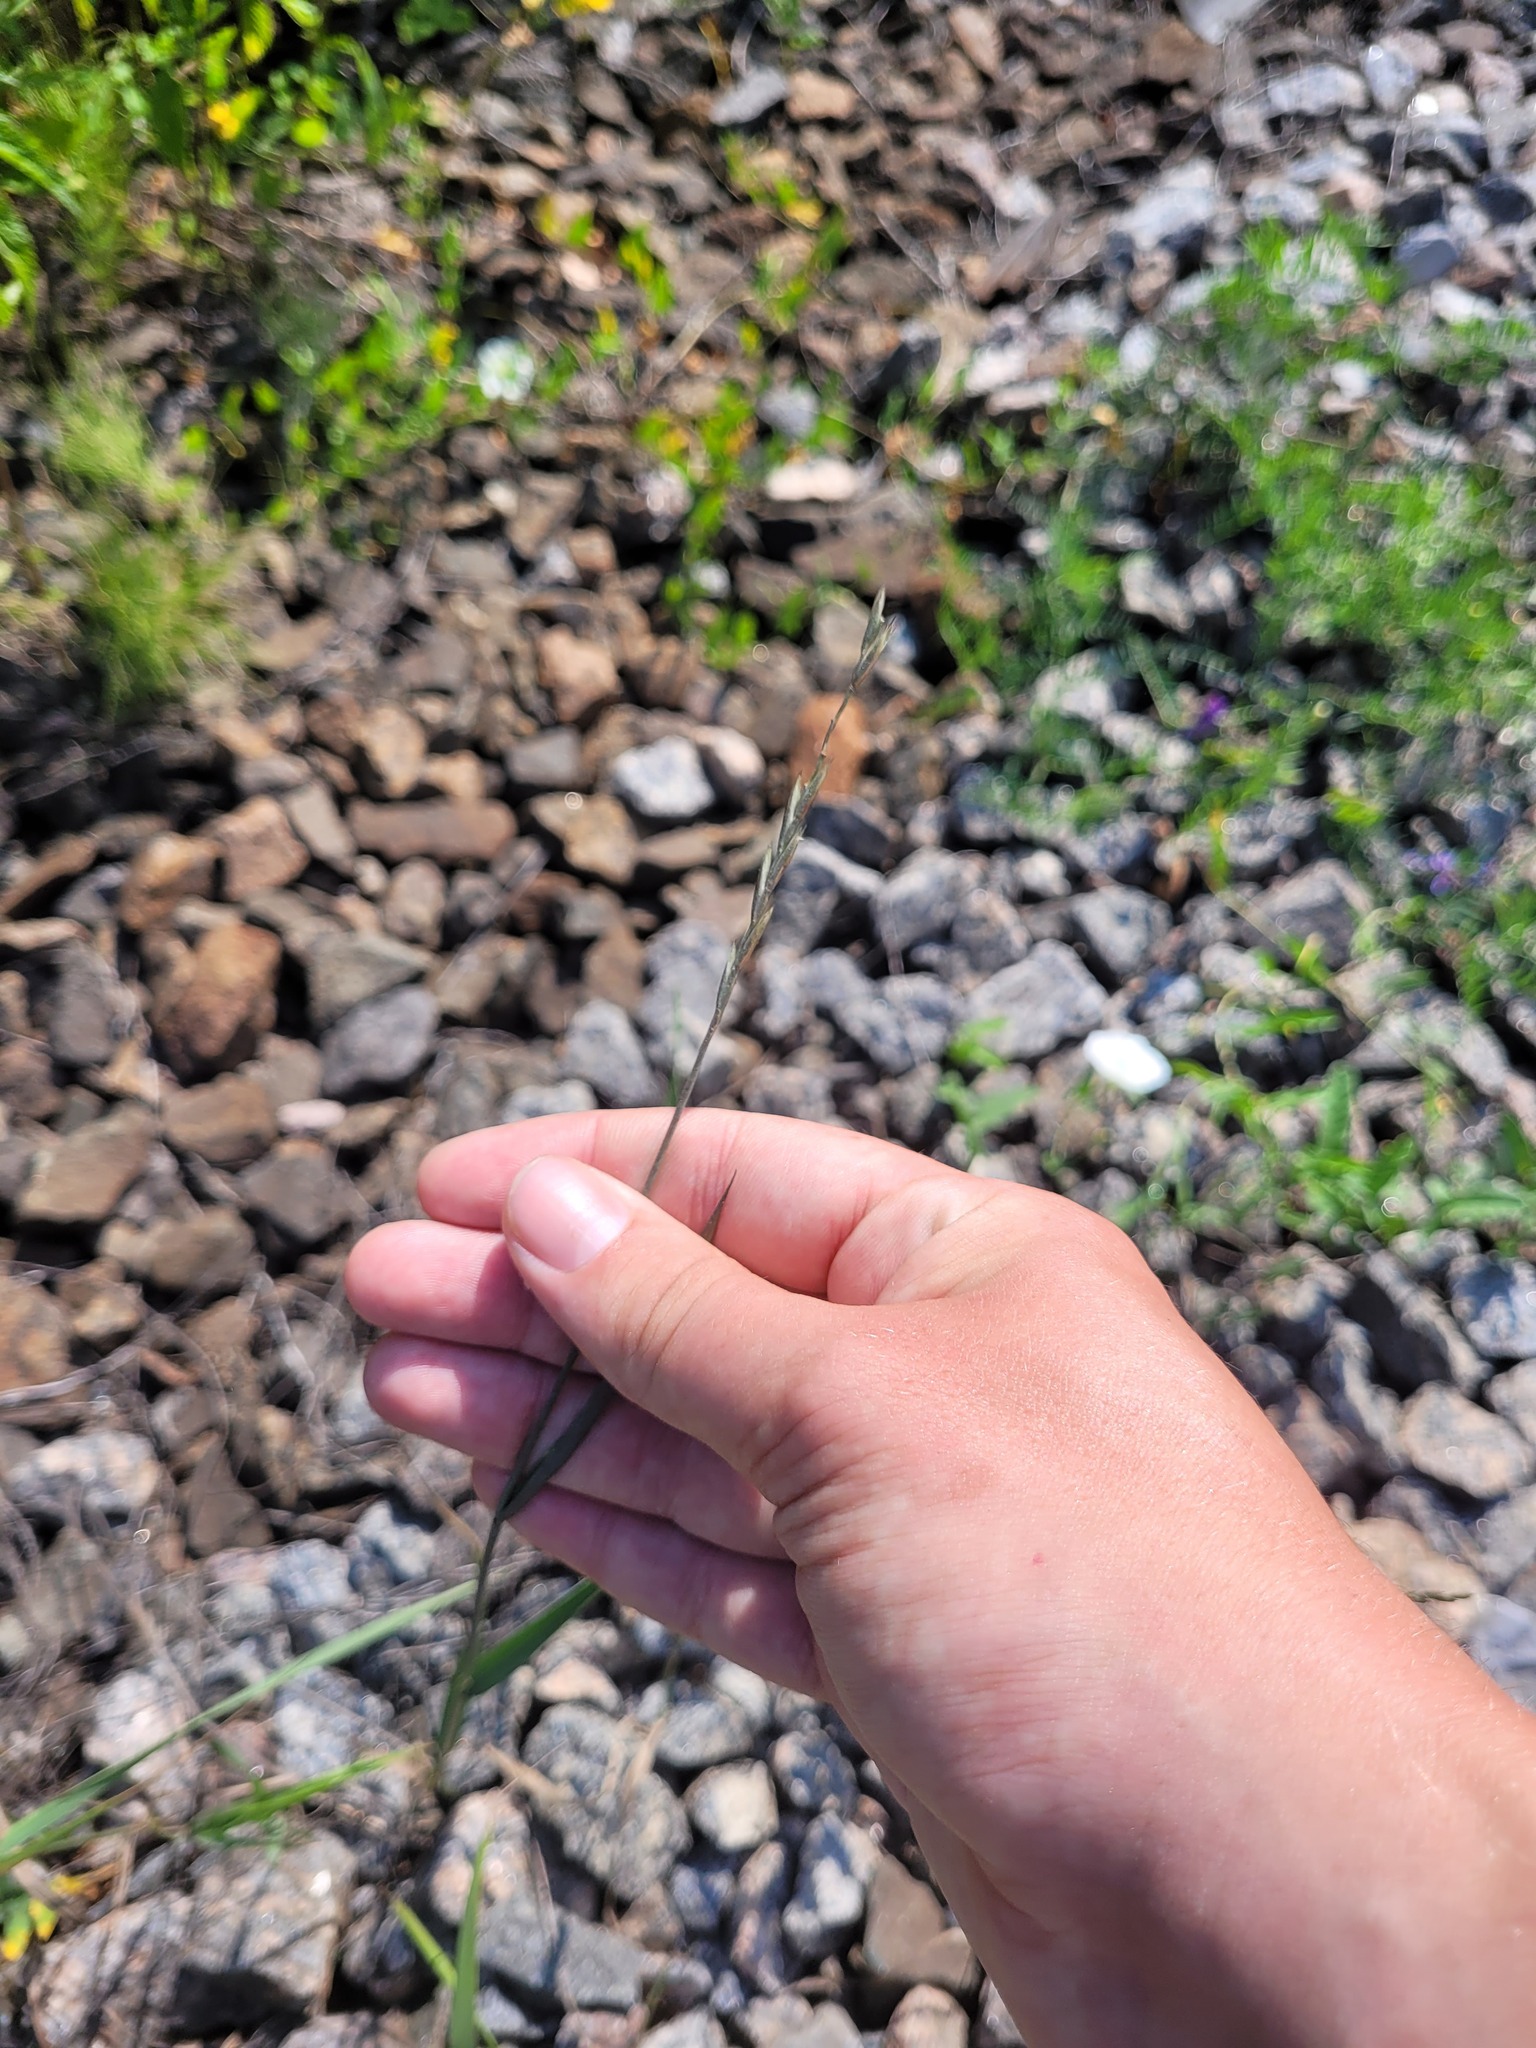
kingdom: Plantae
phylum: Tracheophyta
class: Liliopsida
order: Poales
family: Poaceae
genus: Elymus
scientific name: Elymus repens
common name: Quackgrass
